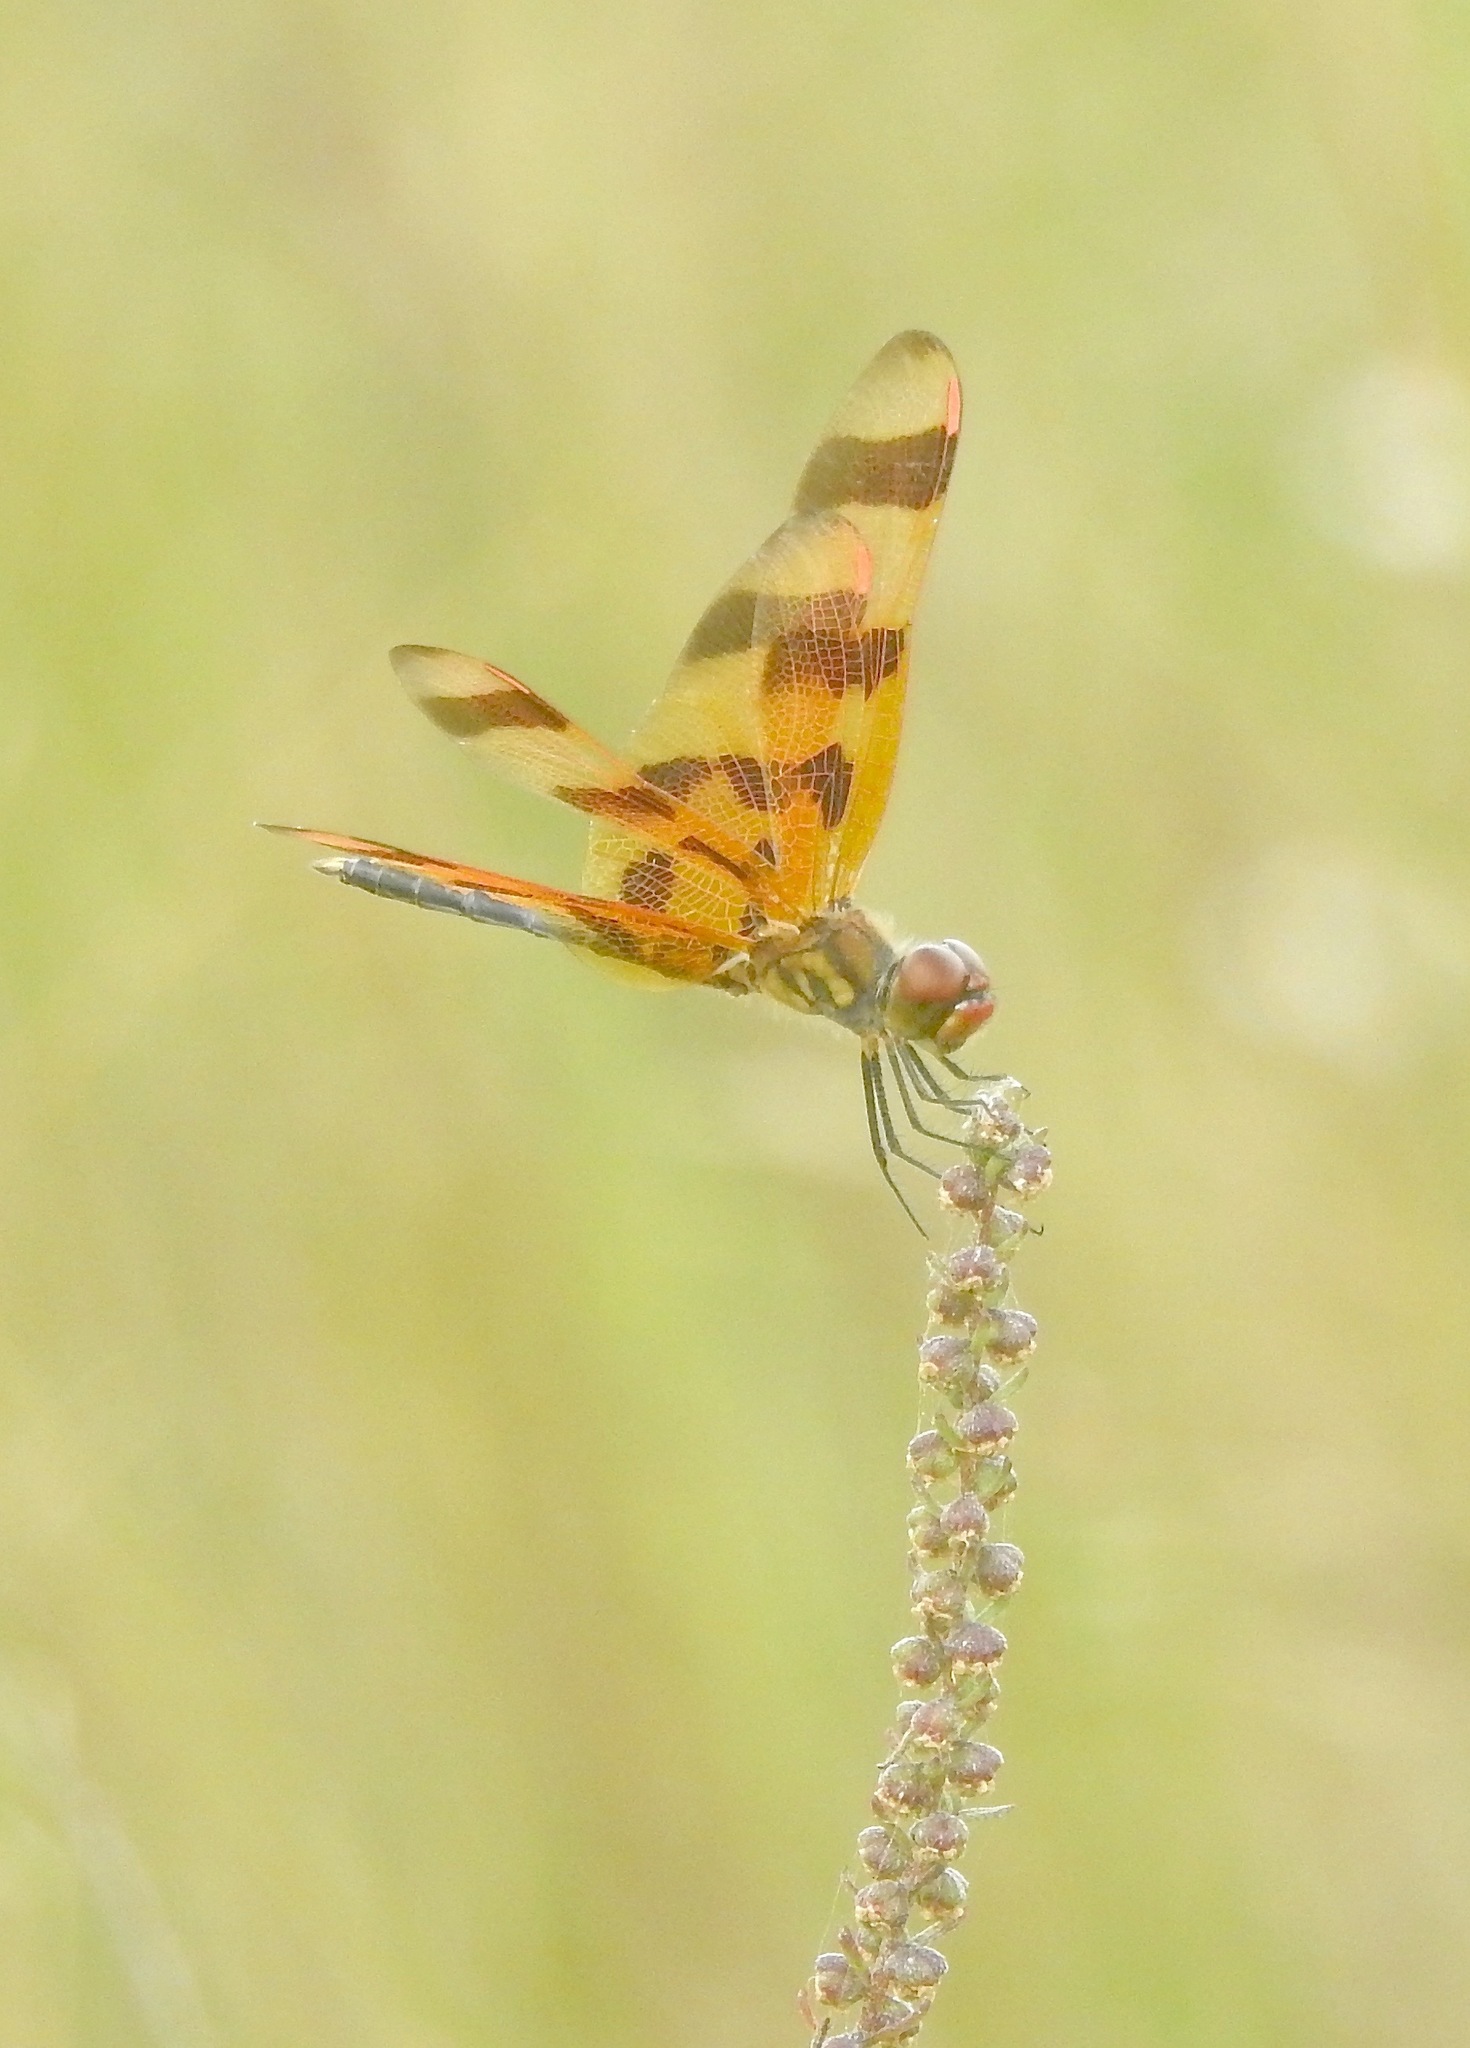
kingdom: Animalia
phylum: Arthropoda
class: Insecta
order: Odonata
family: Libellulidae
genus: Celithemis
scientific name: Celithemis eponina
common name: Halloween pennant
